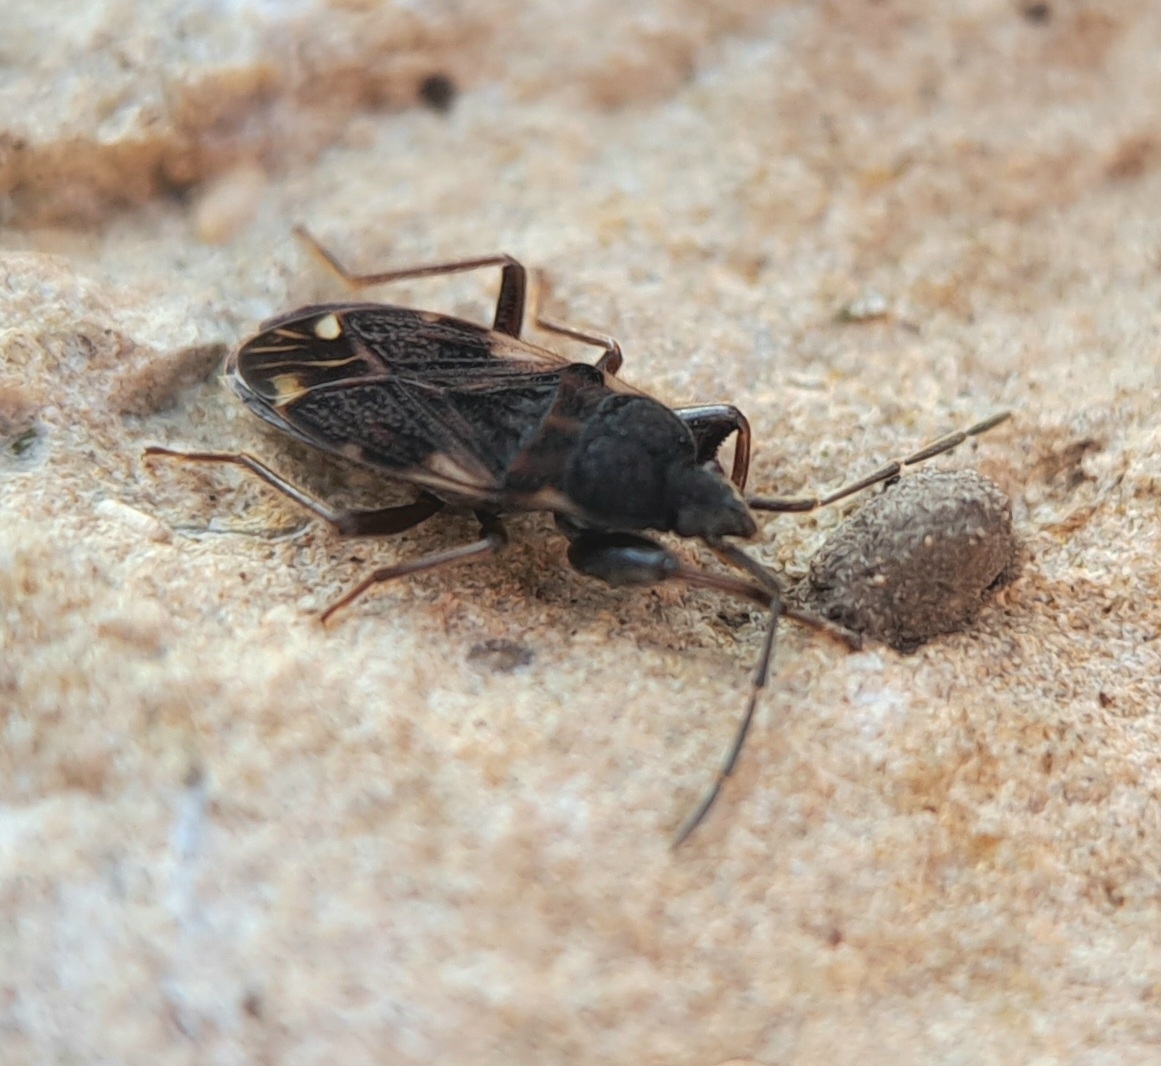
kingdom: Animalia
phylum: Arthropoda
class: Insecta
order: Hemiptera
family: Rhyparochromidae
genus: Eremocoris
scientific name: Eremocoris podagricus
